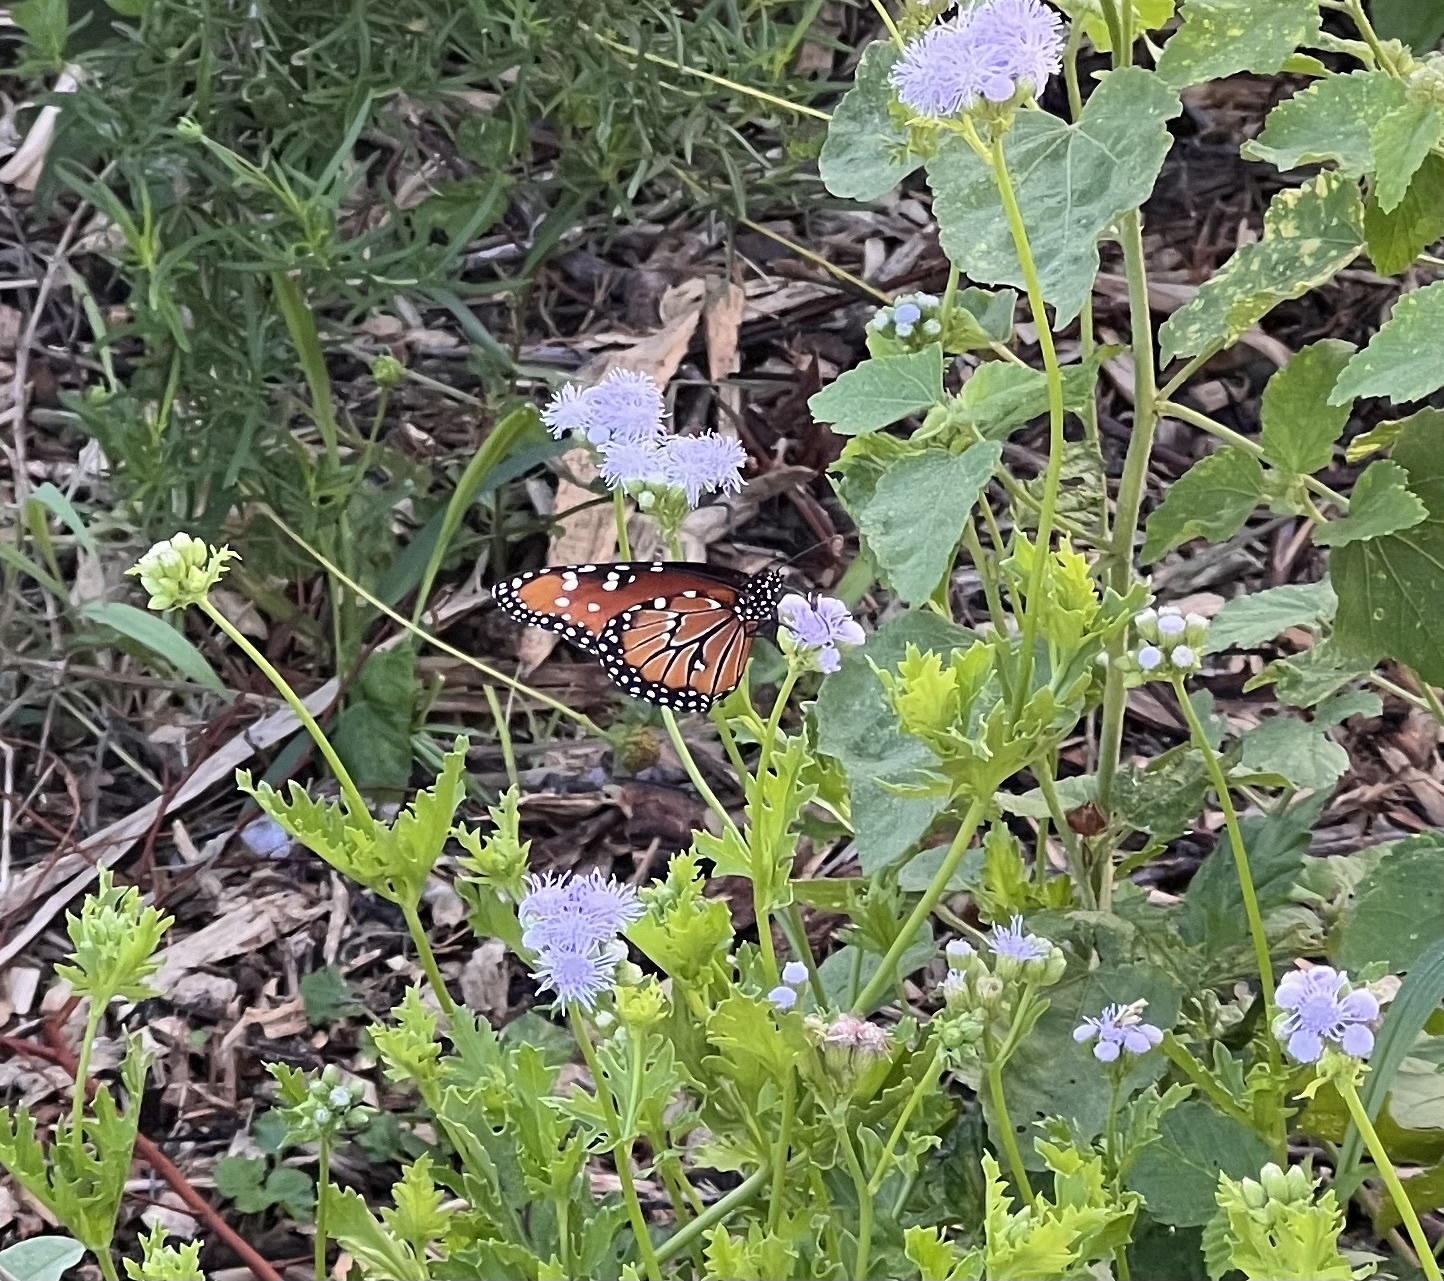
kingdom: Animalia
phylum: Arthropoda
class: Insecta
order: Lepidoptera
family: Nymphalidae
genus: Danaus
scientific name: Danaus gilippus
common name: Queen
